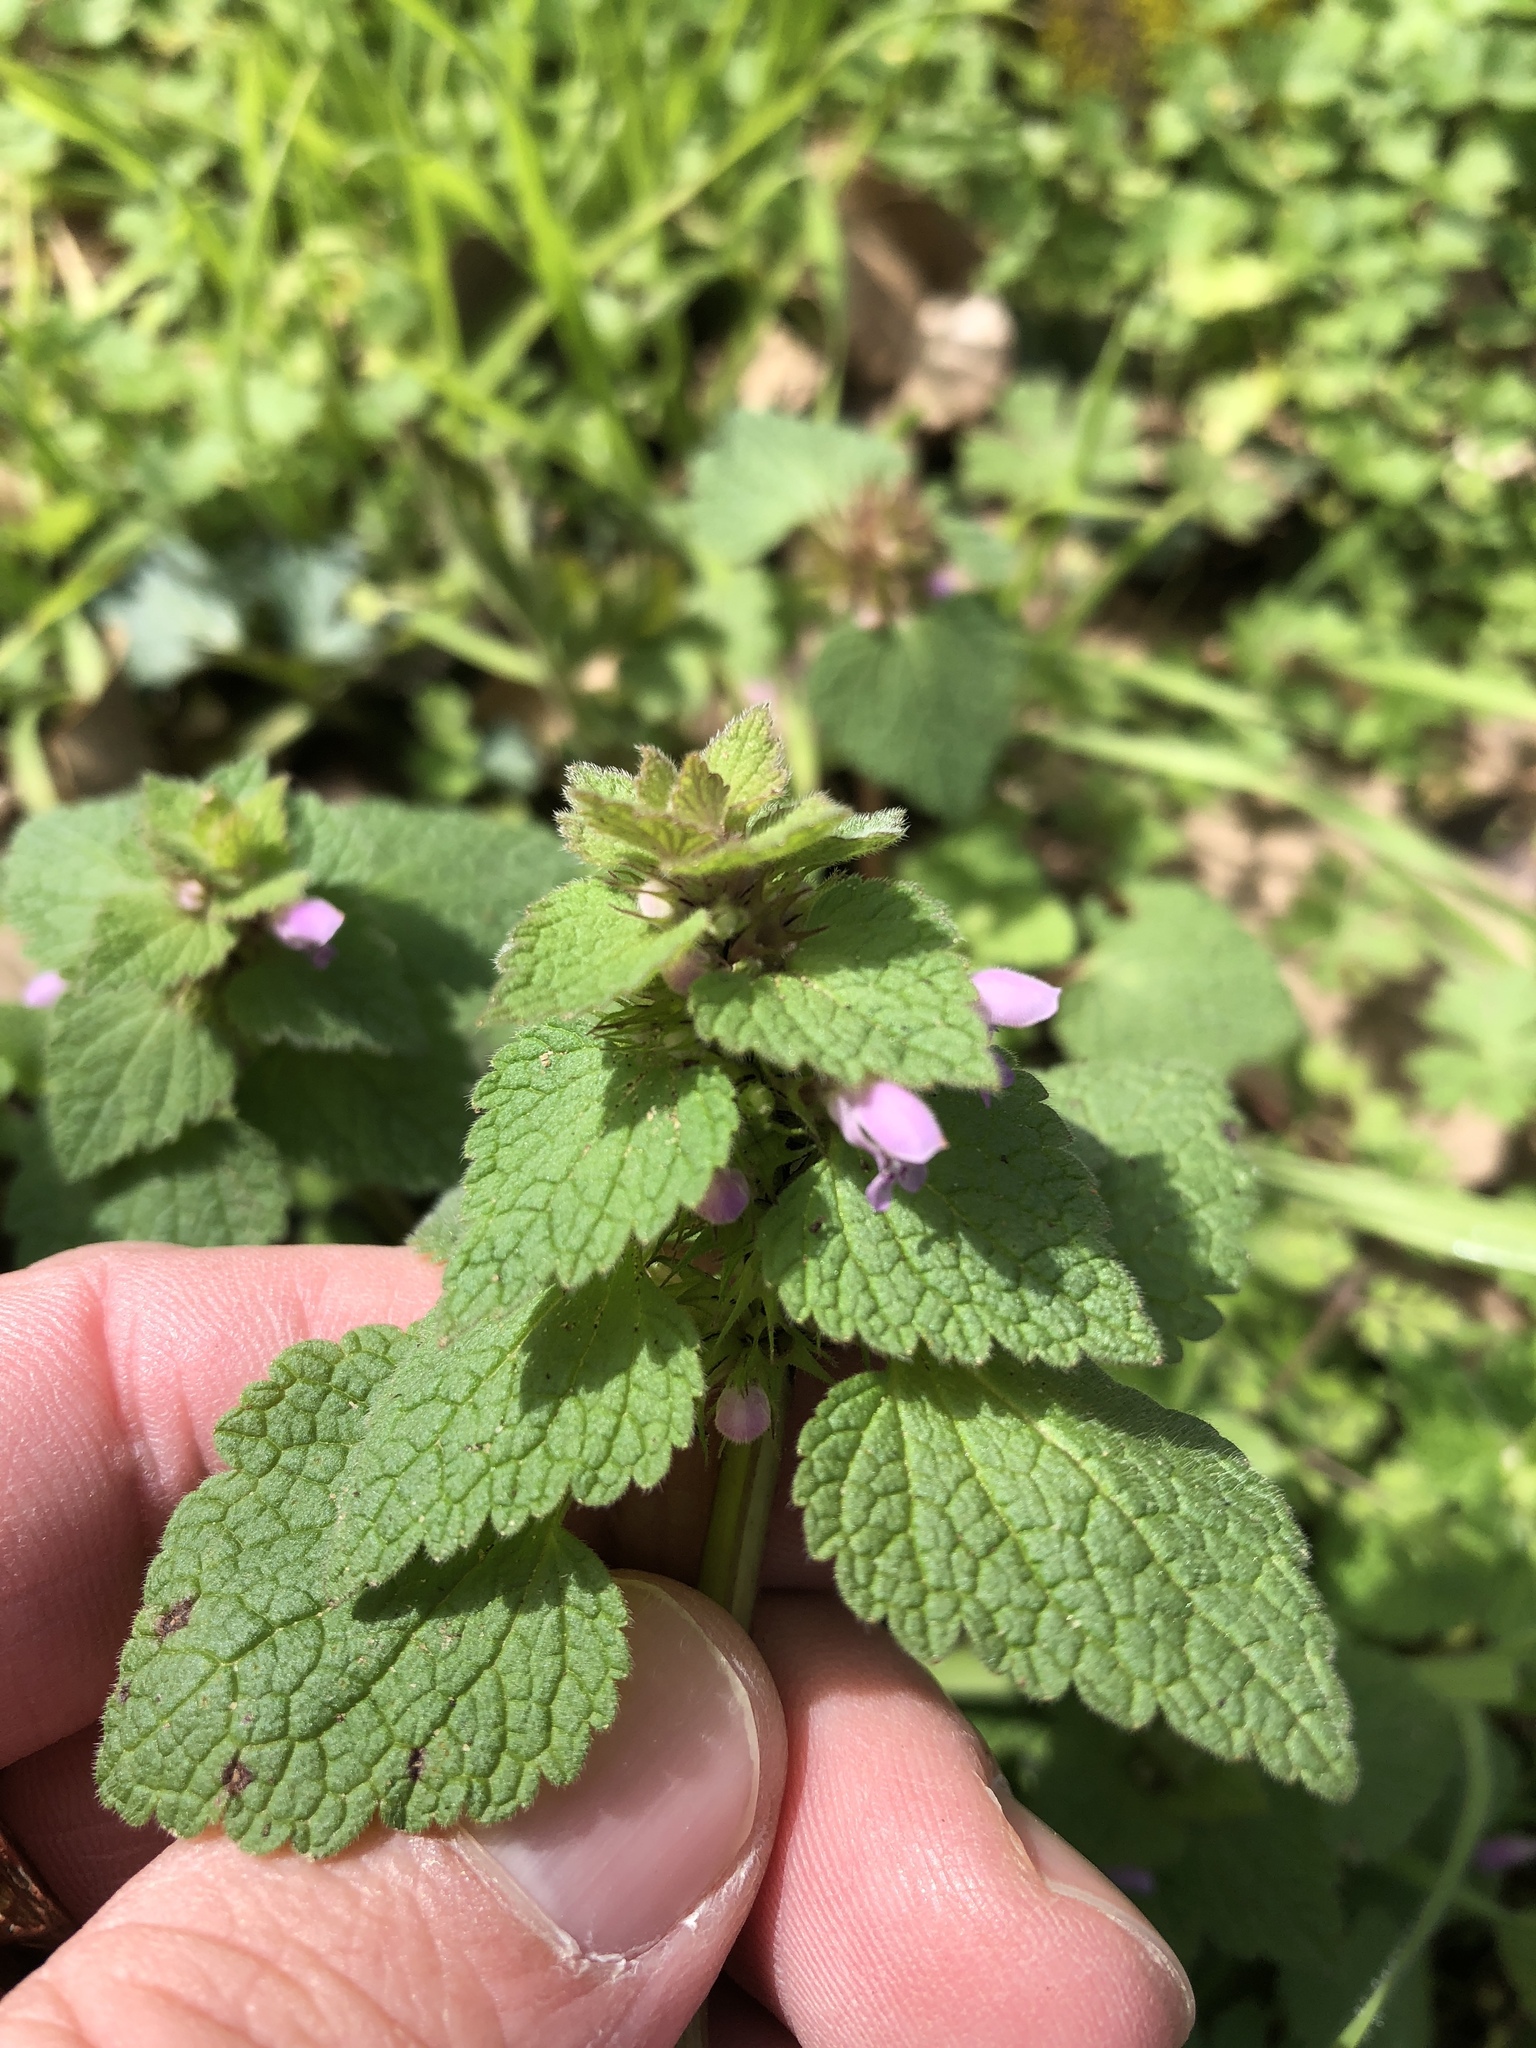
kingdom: Plantae
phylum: Tracheophyta
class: Magnoliopsida
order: Lamiales
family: Lamiaceae
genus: Lamium
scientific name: Lamium purpureum
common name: Red dead-nettle
